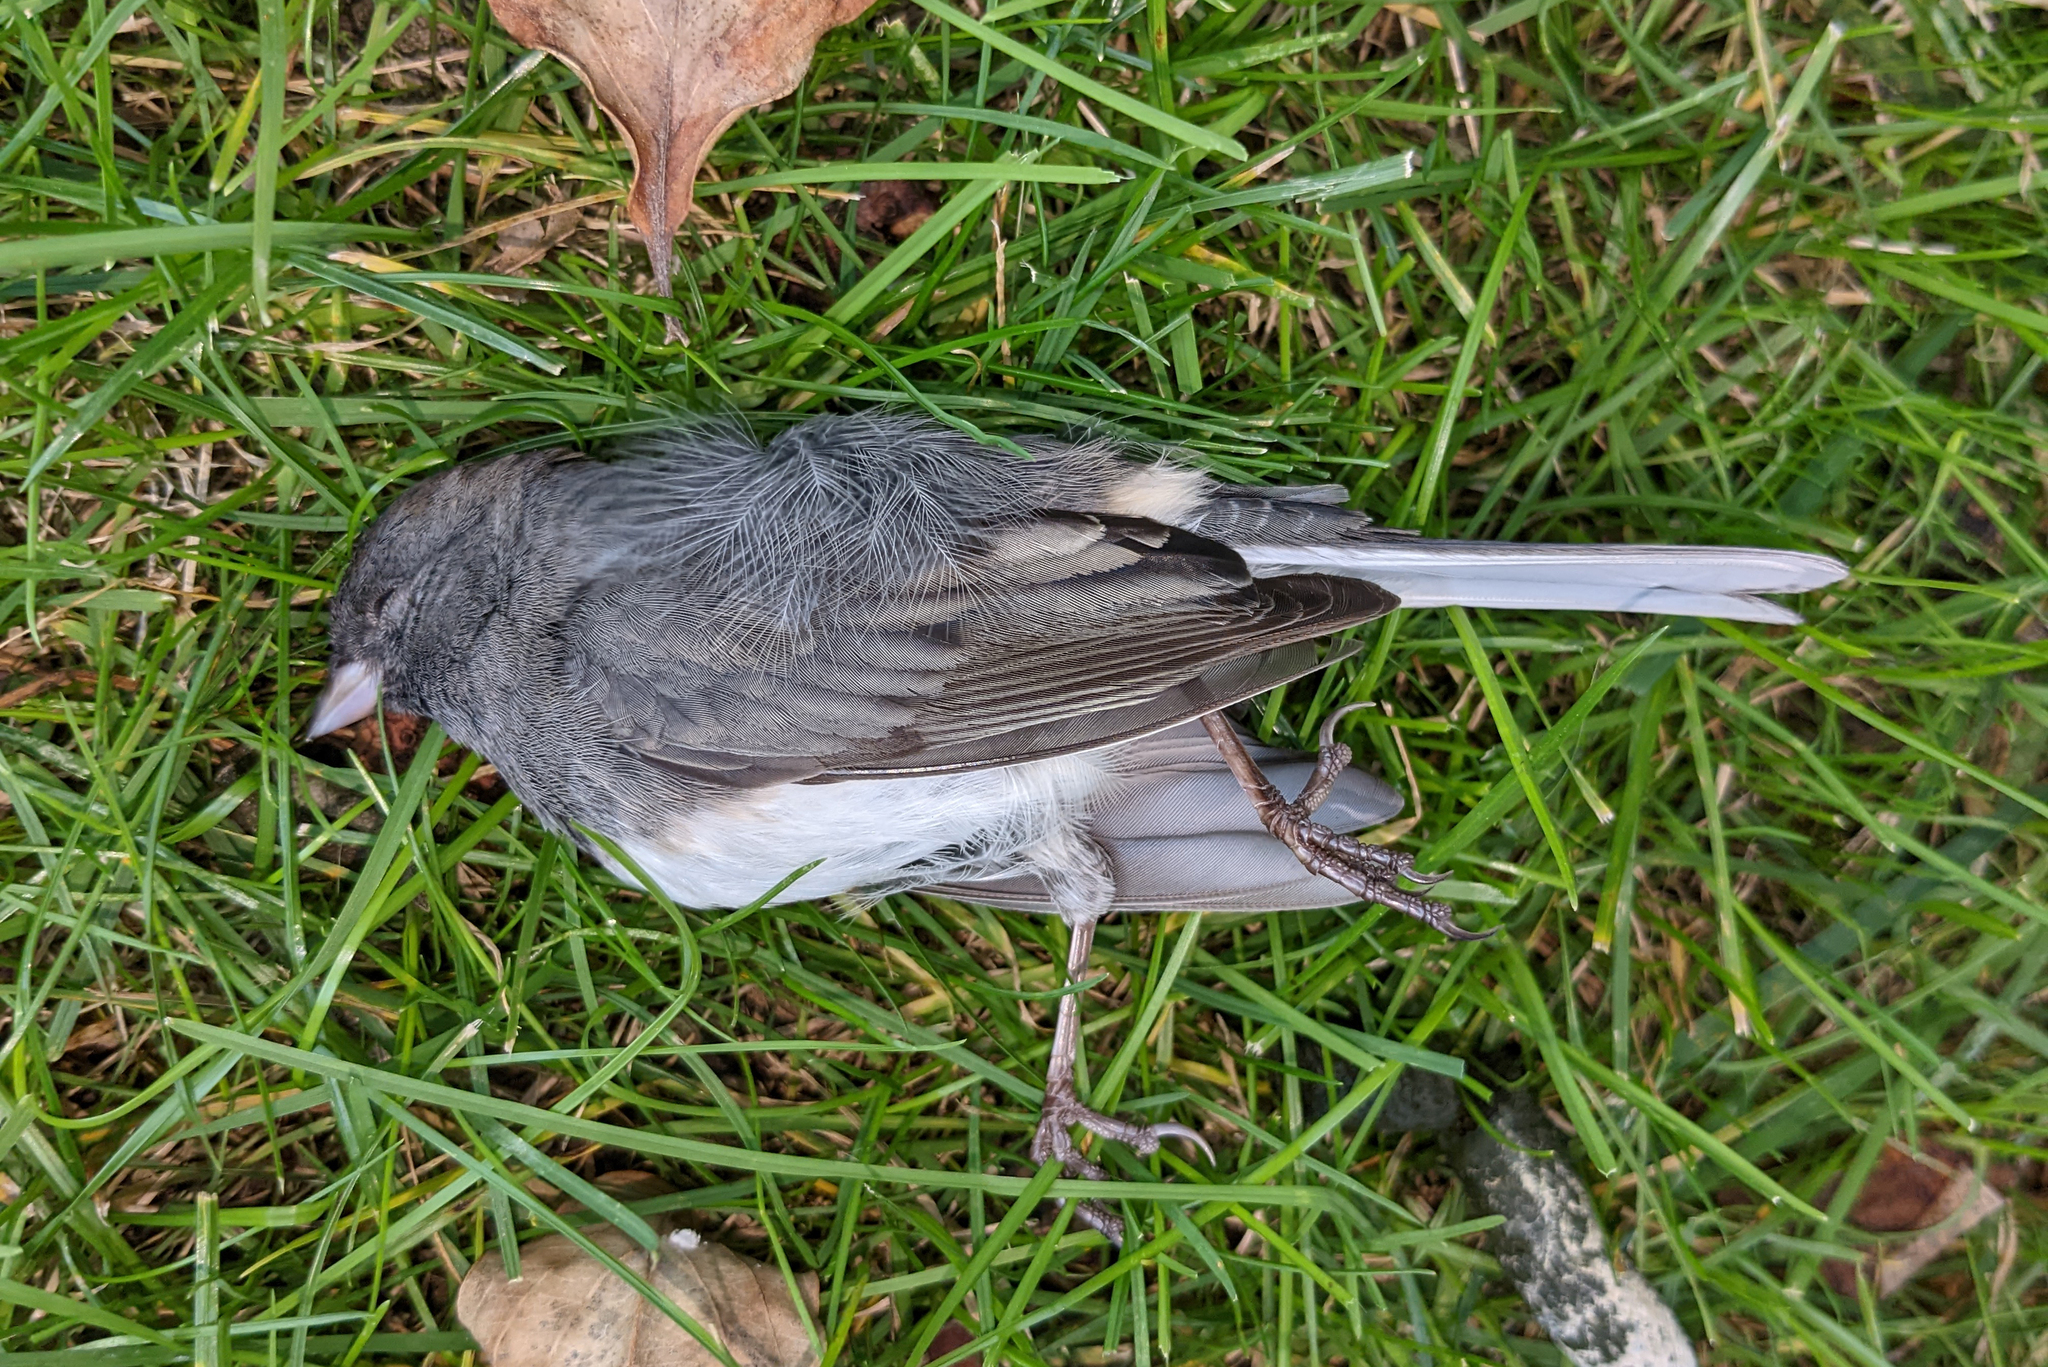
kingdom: Animalia
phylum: Chordata
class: Aves
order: Passeriformes
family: Passerellidae
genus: Junco
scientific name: Junco hyemalis
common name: Dark-eyed junco
